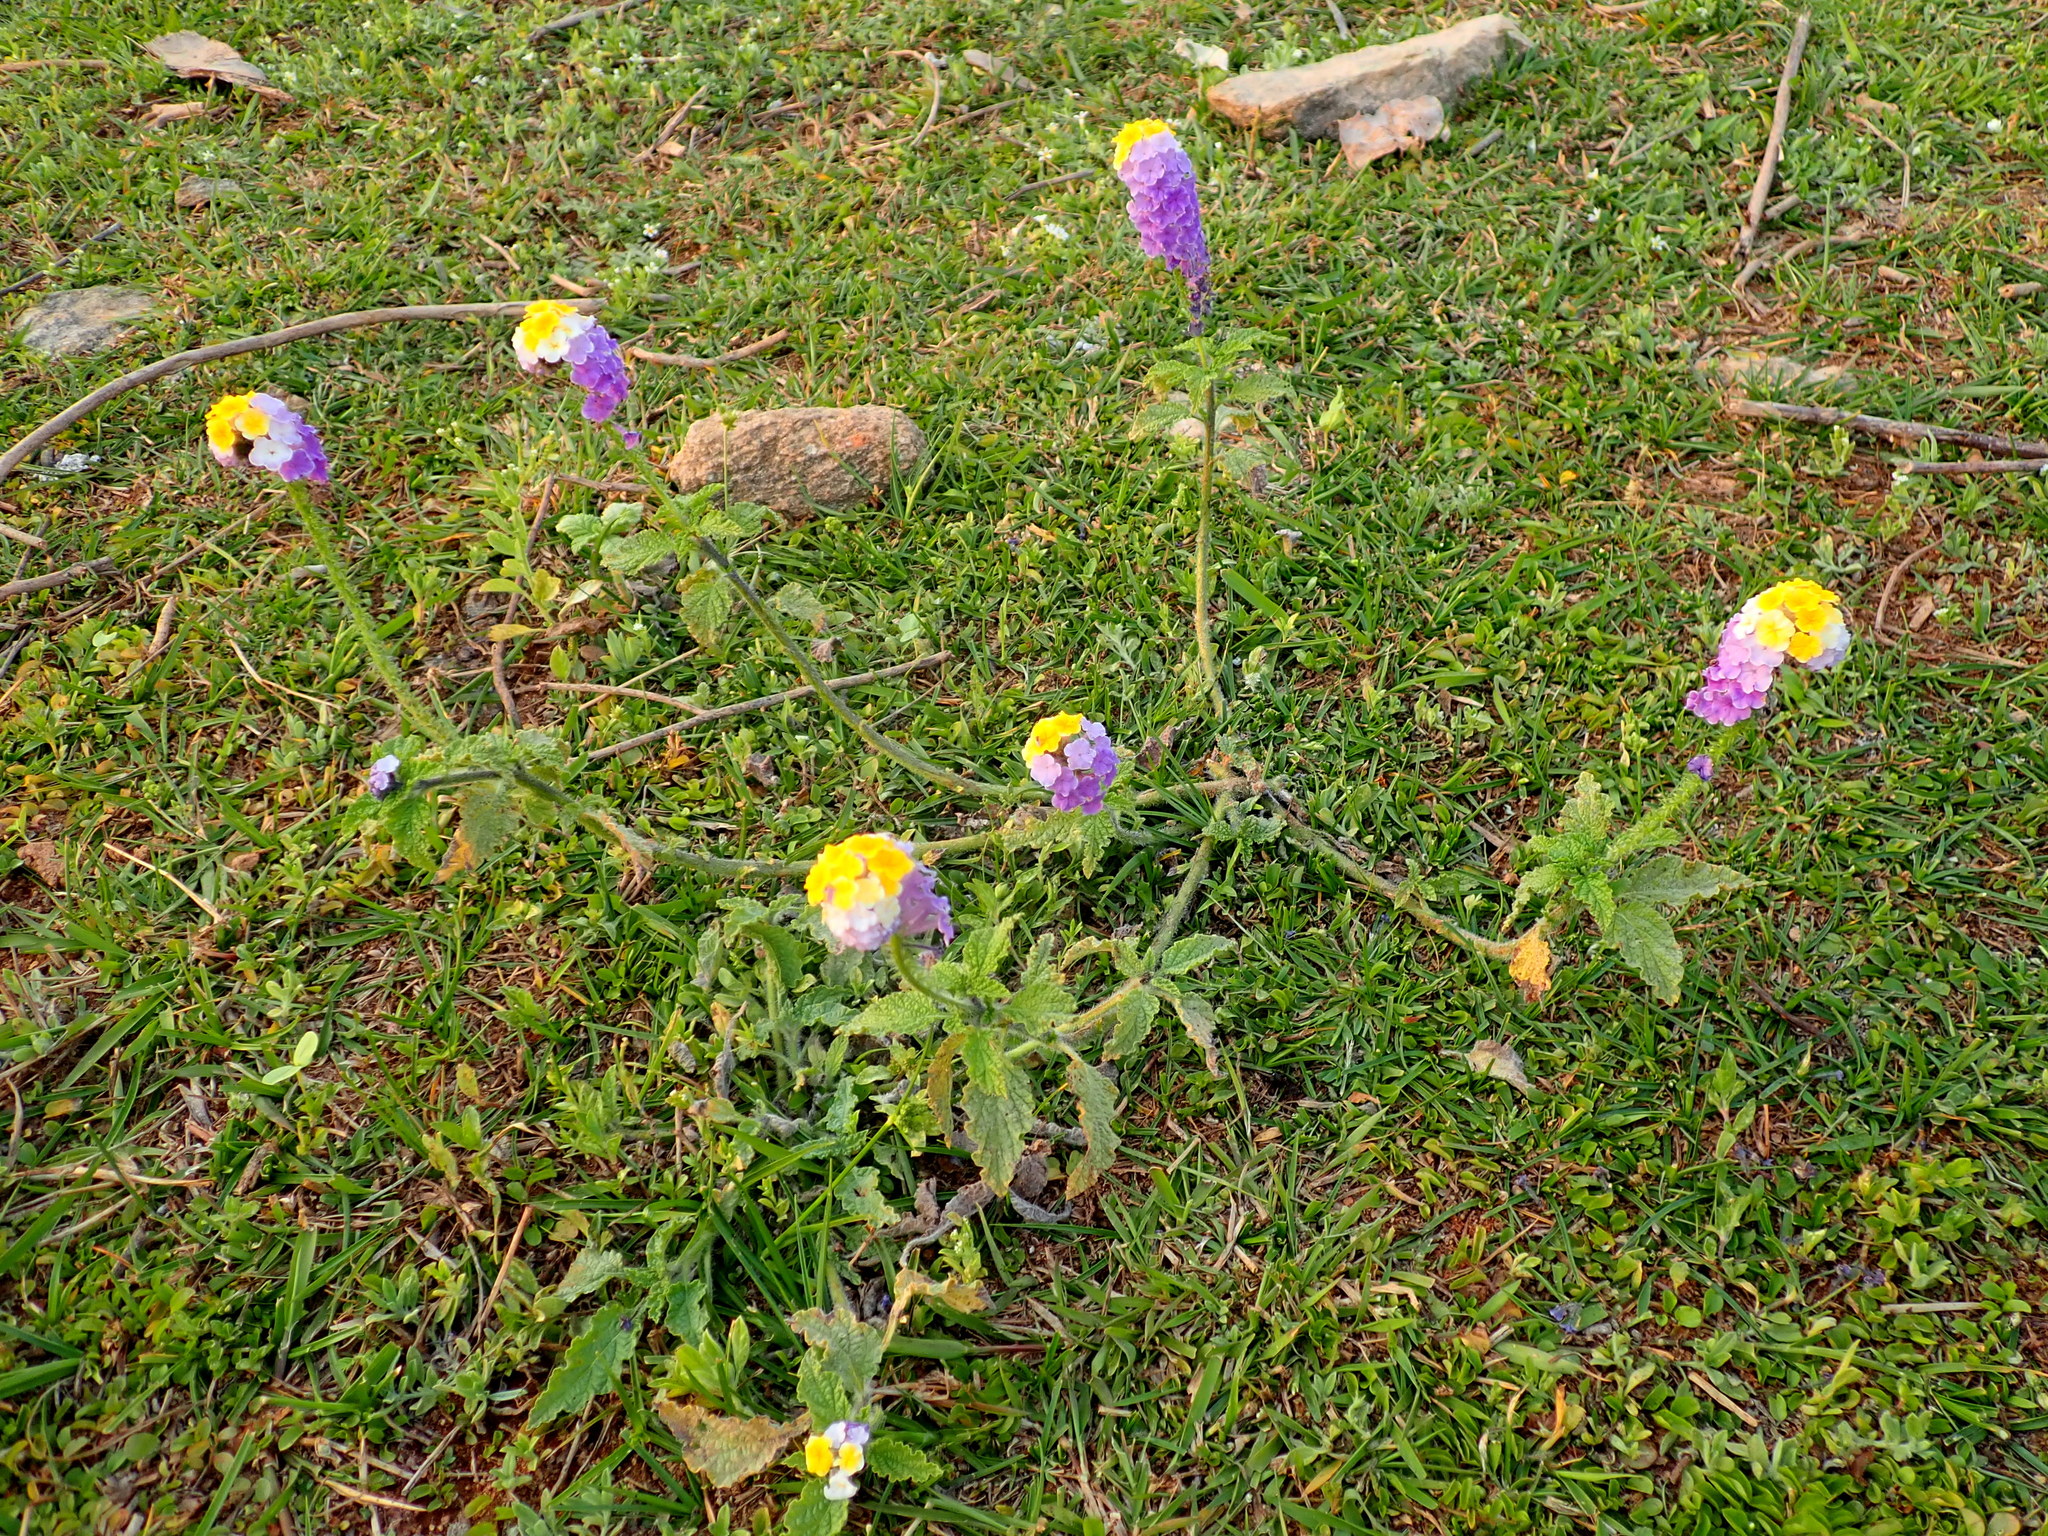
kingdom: Plantae
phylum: Tracheophyta
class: Magnoliopsida
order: Boraginales
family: Heliotropiaceae
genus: Heliotropium
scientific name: Heliotropium elongatum
